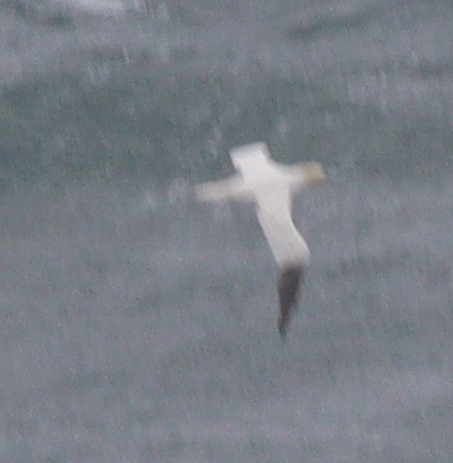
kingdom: Animalia
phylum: Chordata
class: Aves
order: Suliformes
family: Sulidae
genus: Morus
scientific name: Morus bassanus
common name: Northern gannet
